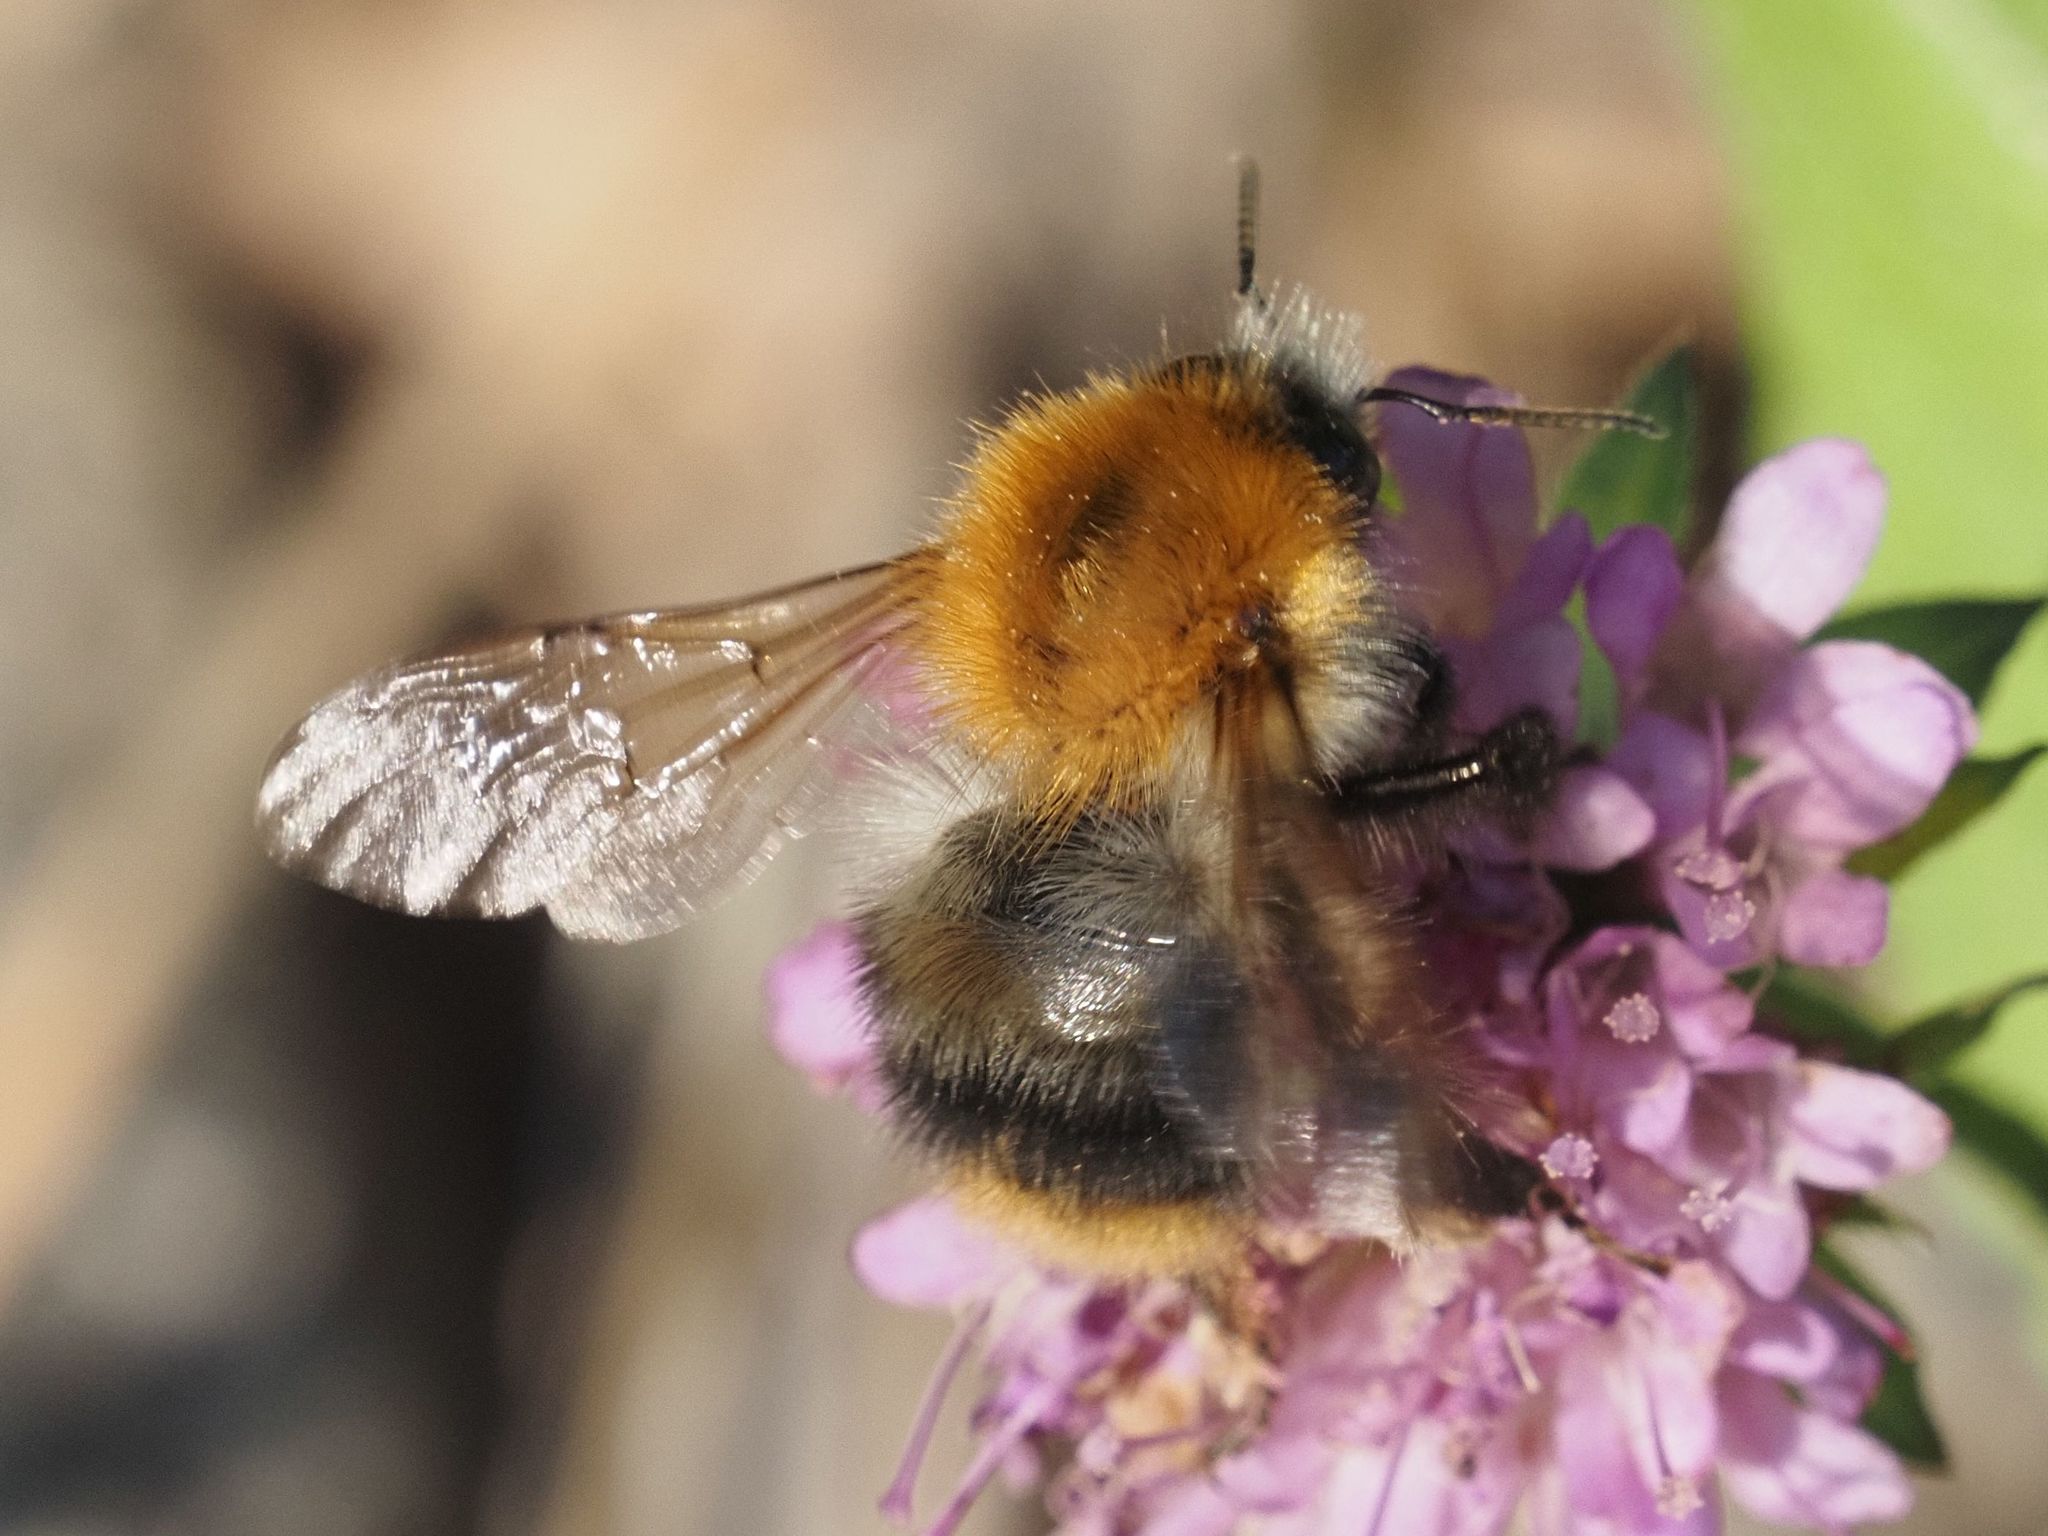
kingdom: Animalia
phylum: Arthropoda
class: Insecta
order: Hymenoptera
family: Apidae
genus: Bombus
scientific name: Bombus pascuorum
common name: Common carder bee
